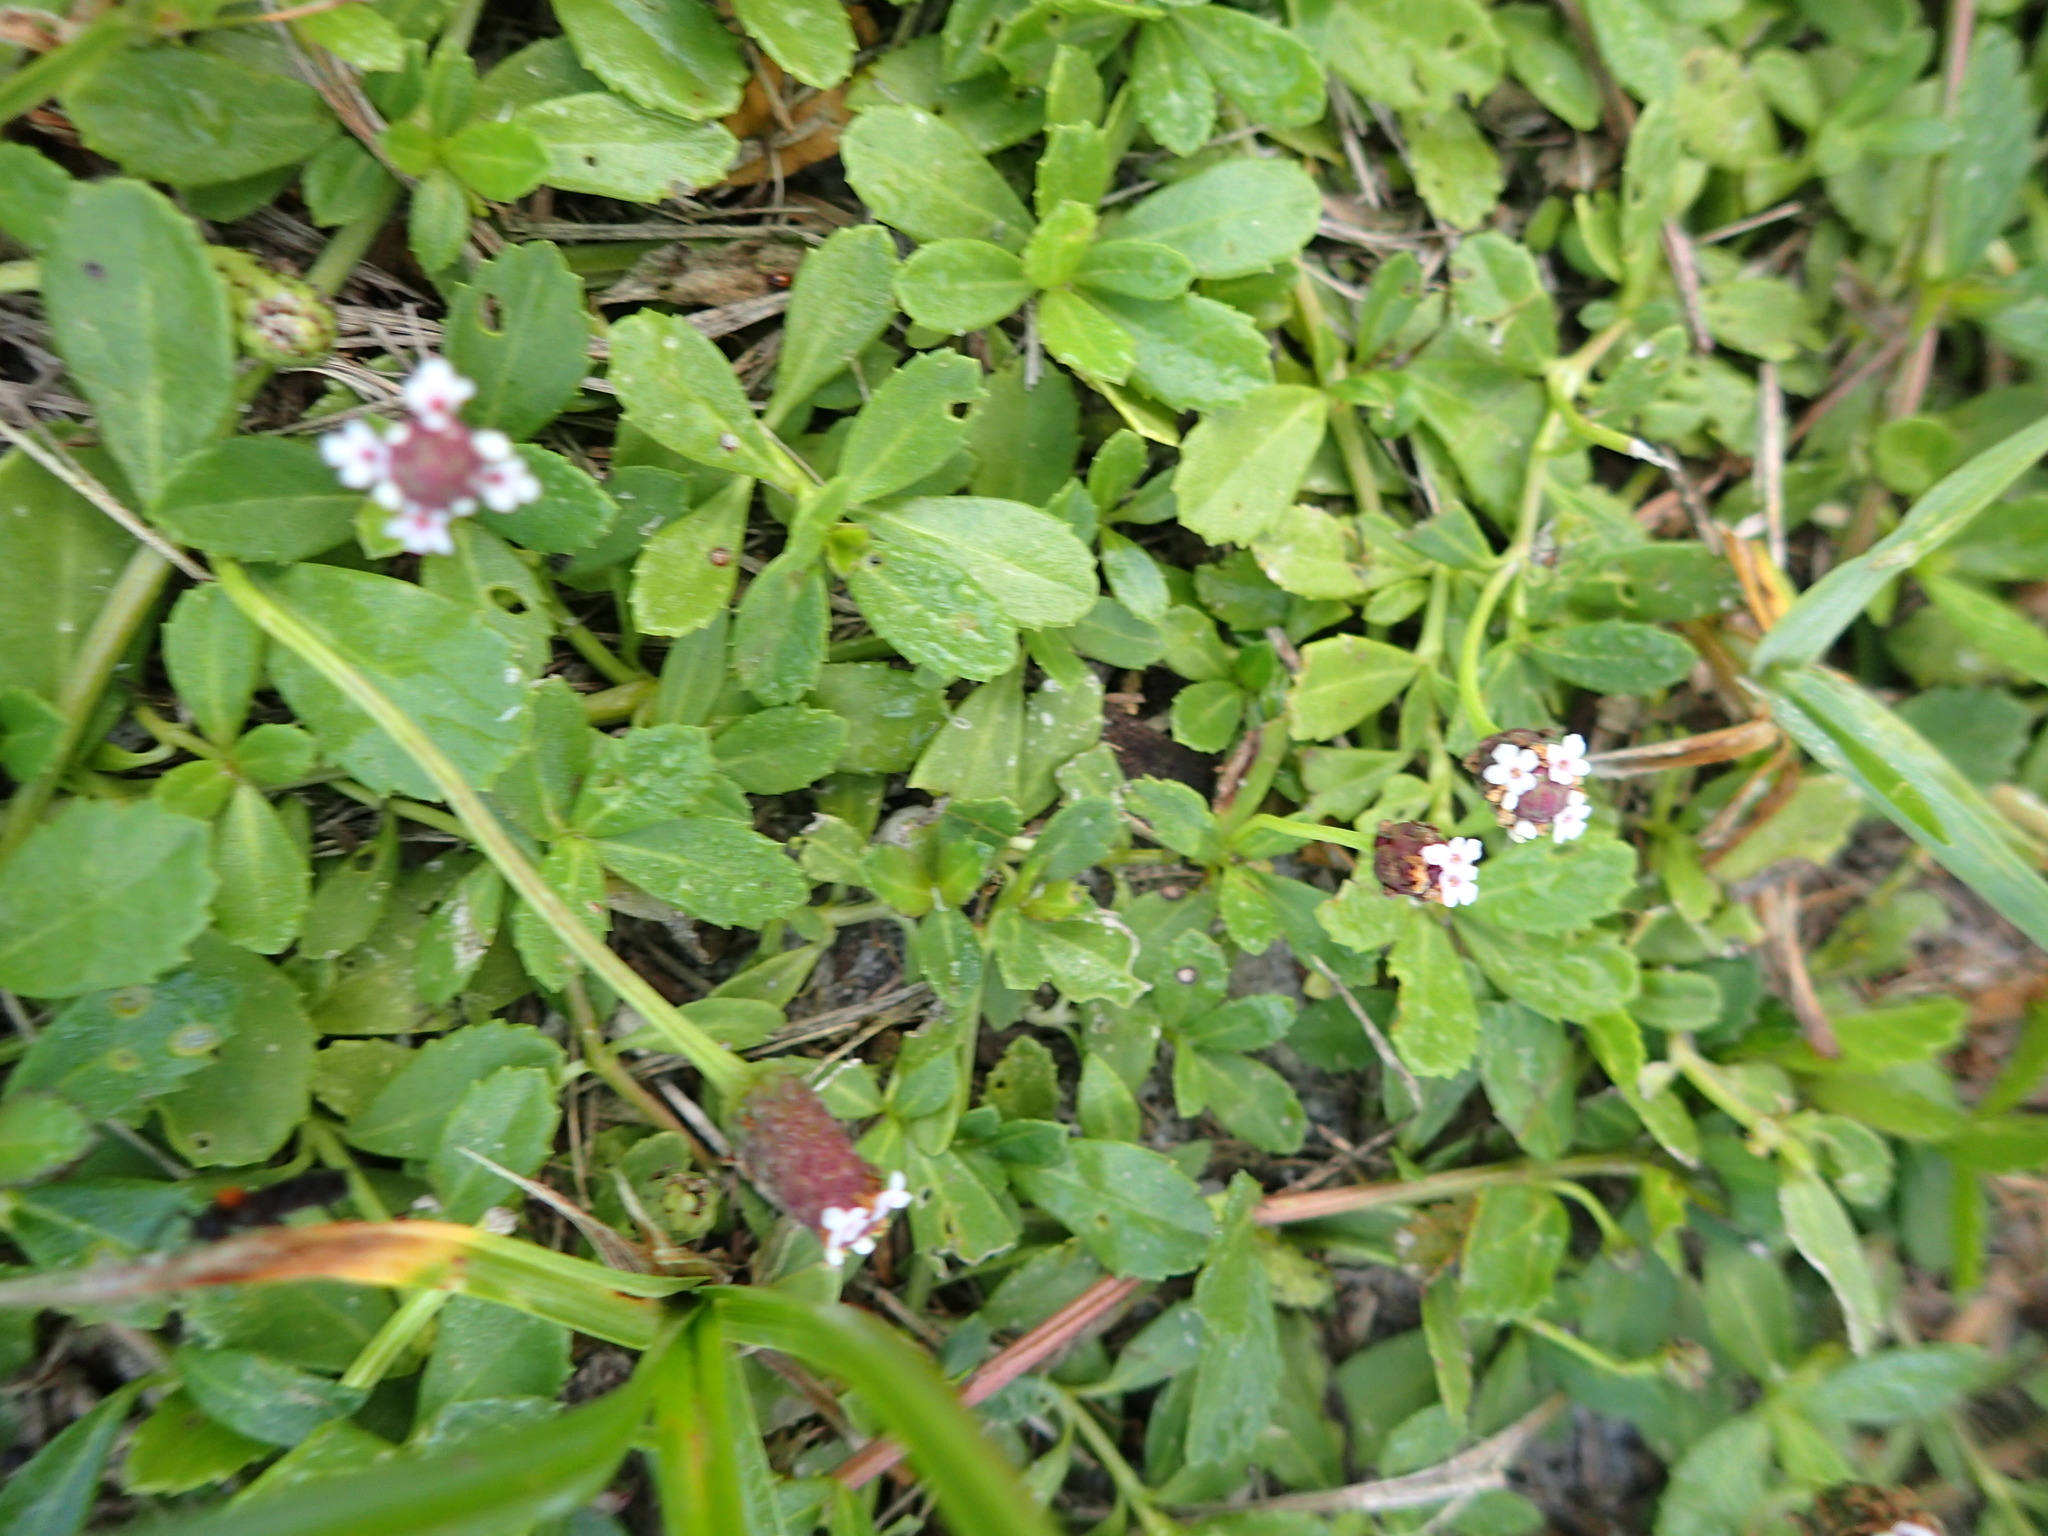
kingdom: Plantae
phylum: Tracheophyta
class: Magnoliopsida
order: Lamiales
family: Verbenaceae
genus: Phyla
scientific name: Phyla nodiflora
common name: Frogfruit
